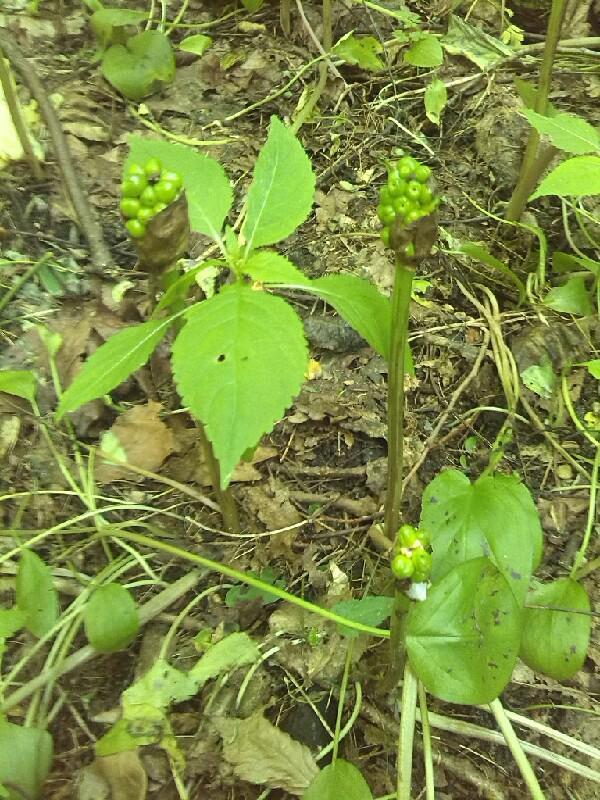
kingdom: Plantae
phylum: Tracheophyta
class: Liliopsida
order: Alismatales
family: Araceae
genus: Arum
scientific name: Arum maculatum
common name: Lords-and-ladies
